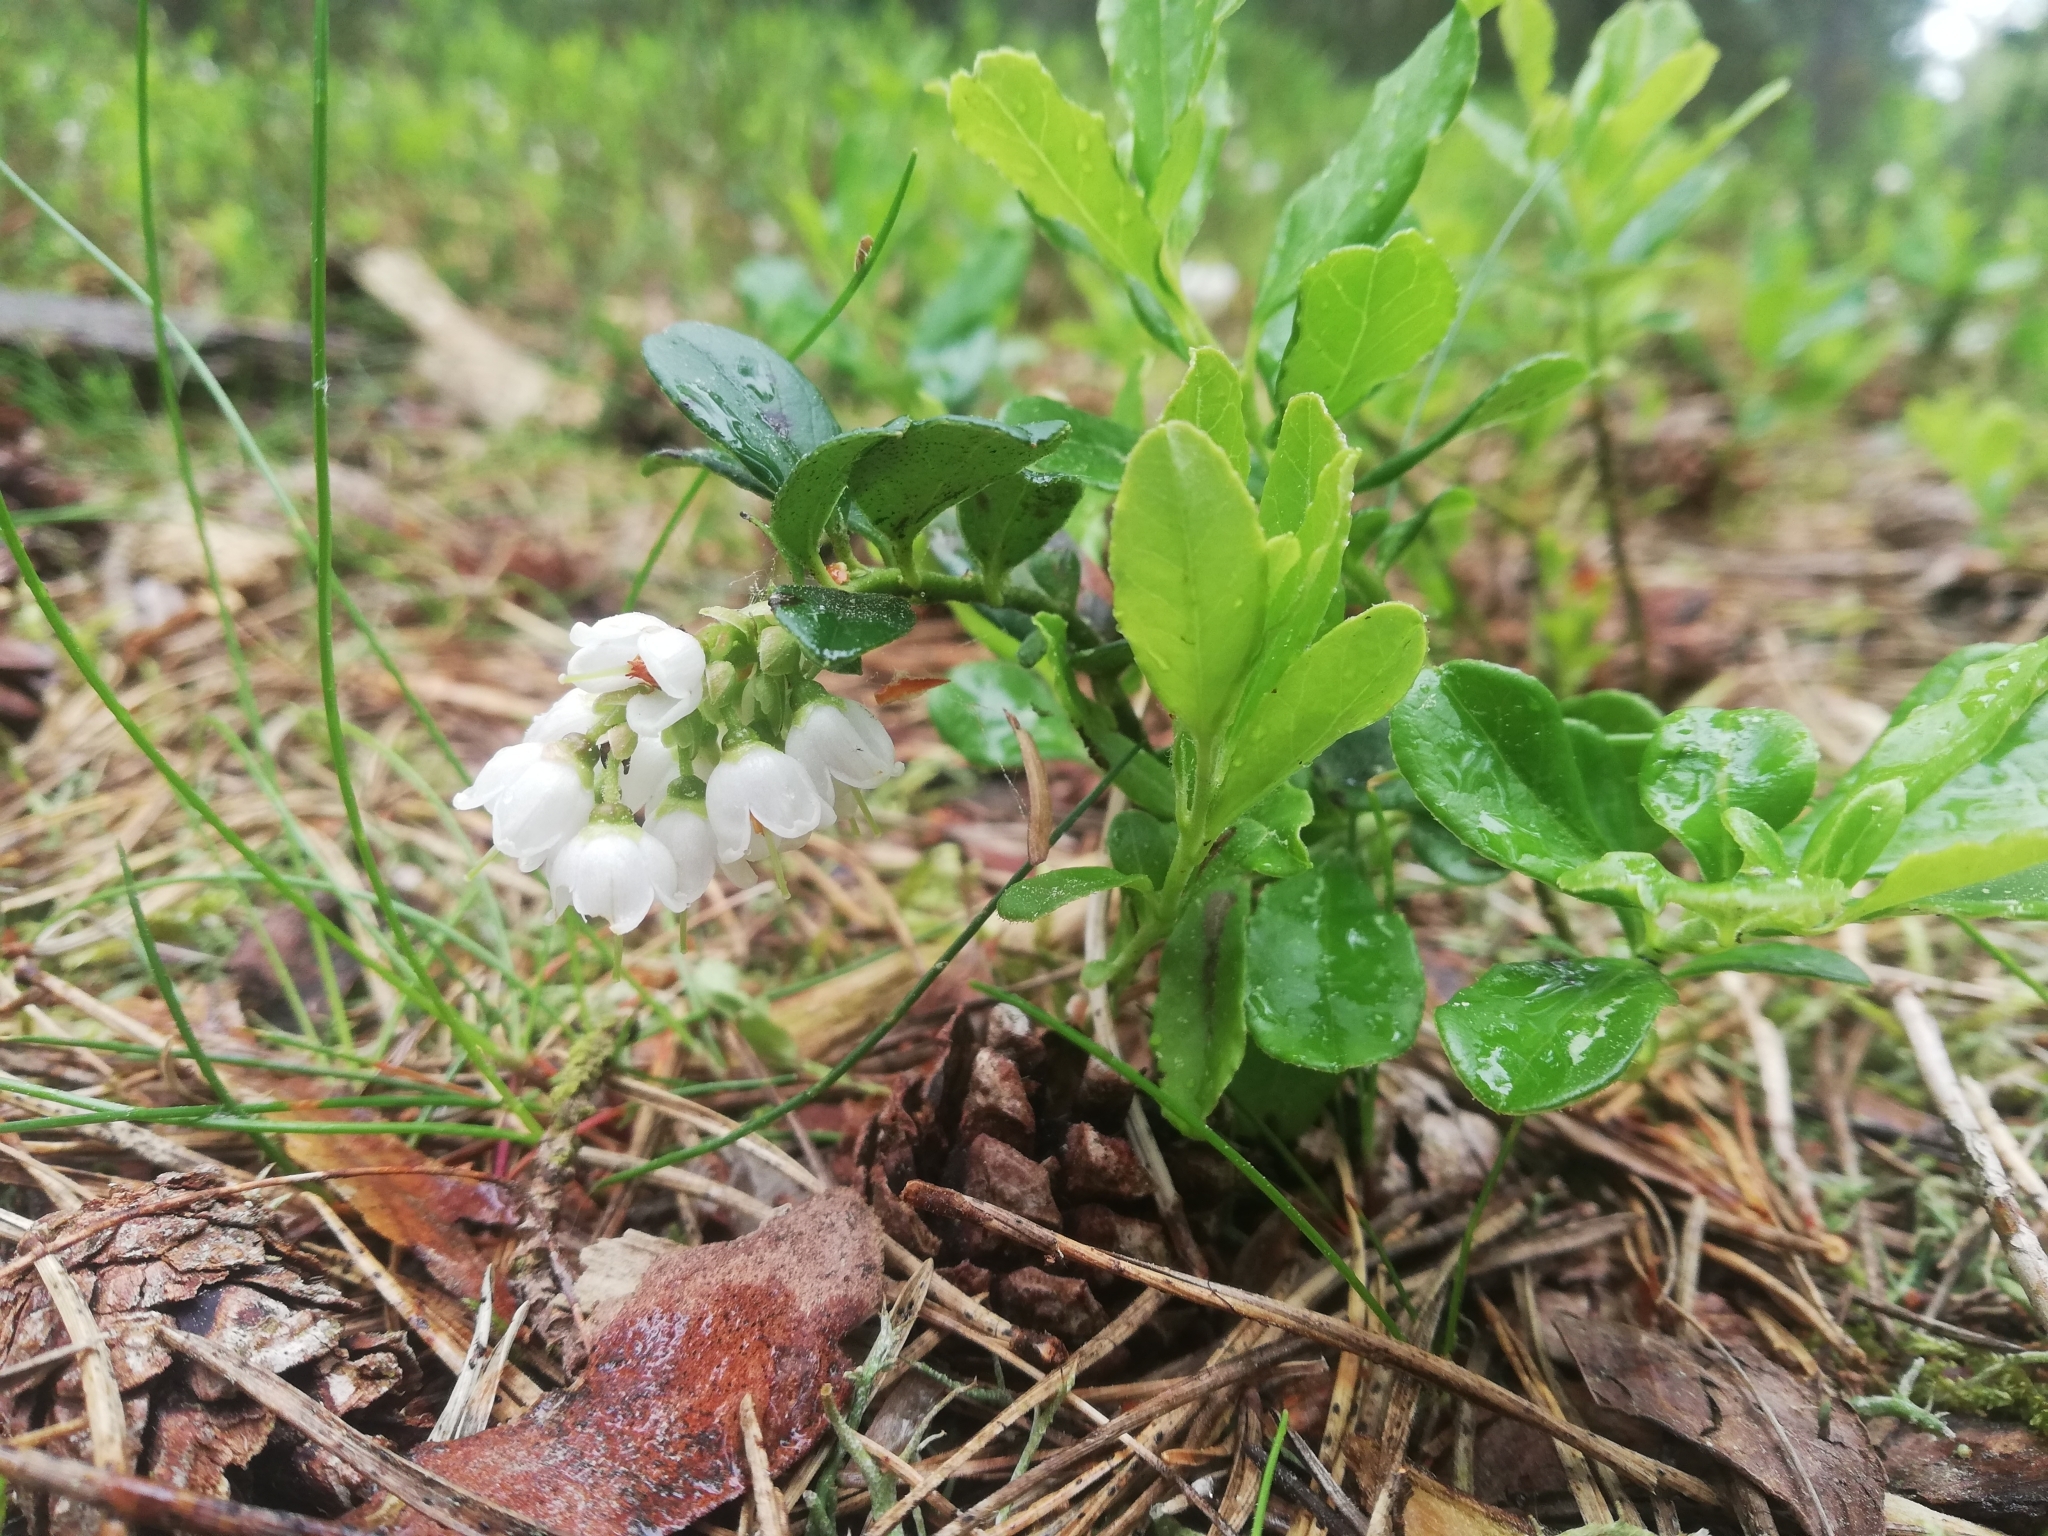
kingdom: Plantae
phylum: Tracheophyta
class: Magnoliopsida
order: Ericales
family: Ericaceae
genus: Vaccinium
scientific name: Vaccinium vitis-idaea
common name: Cowberry
